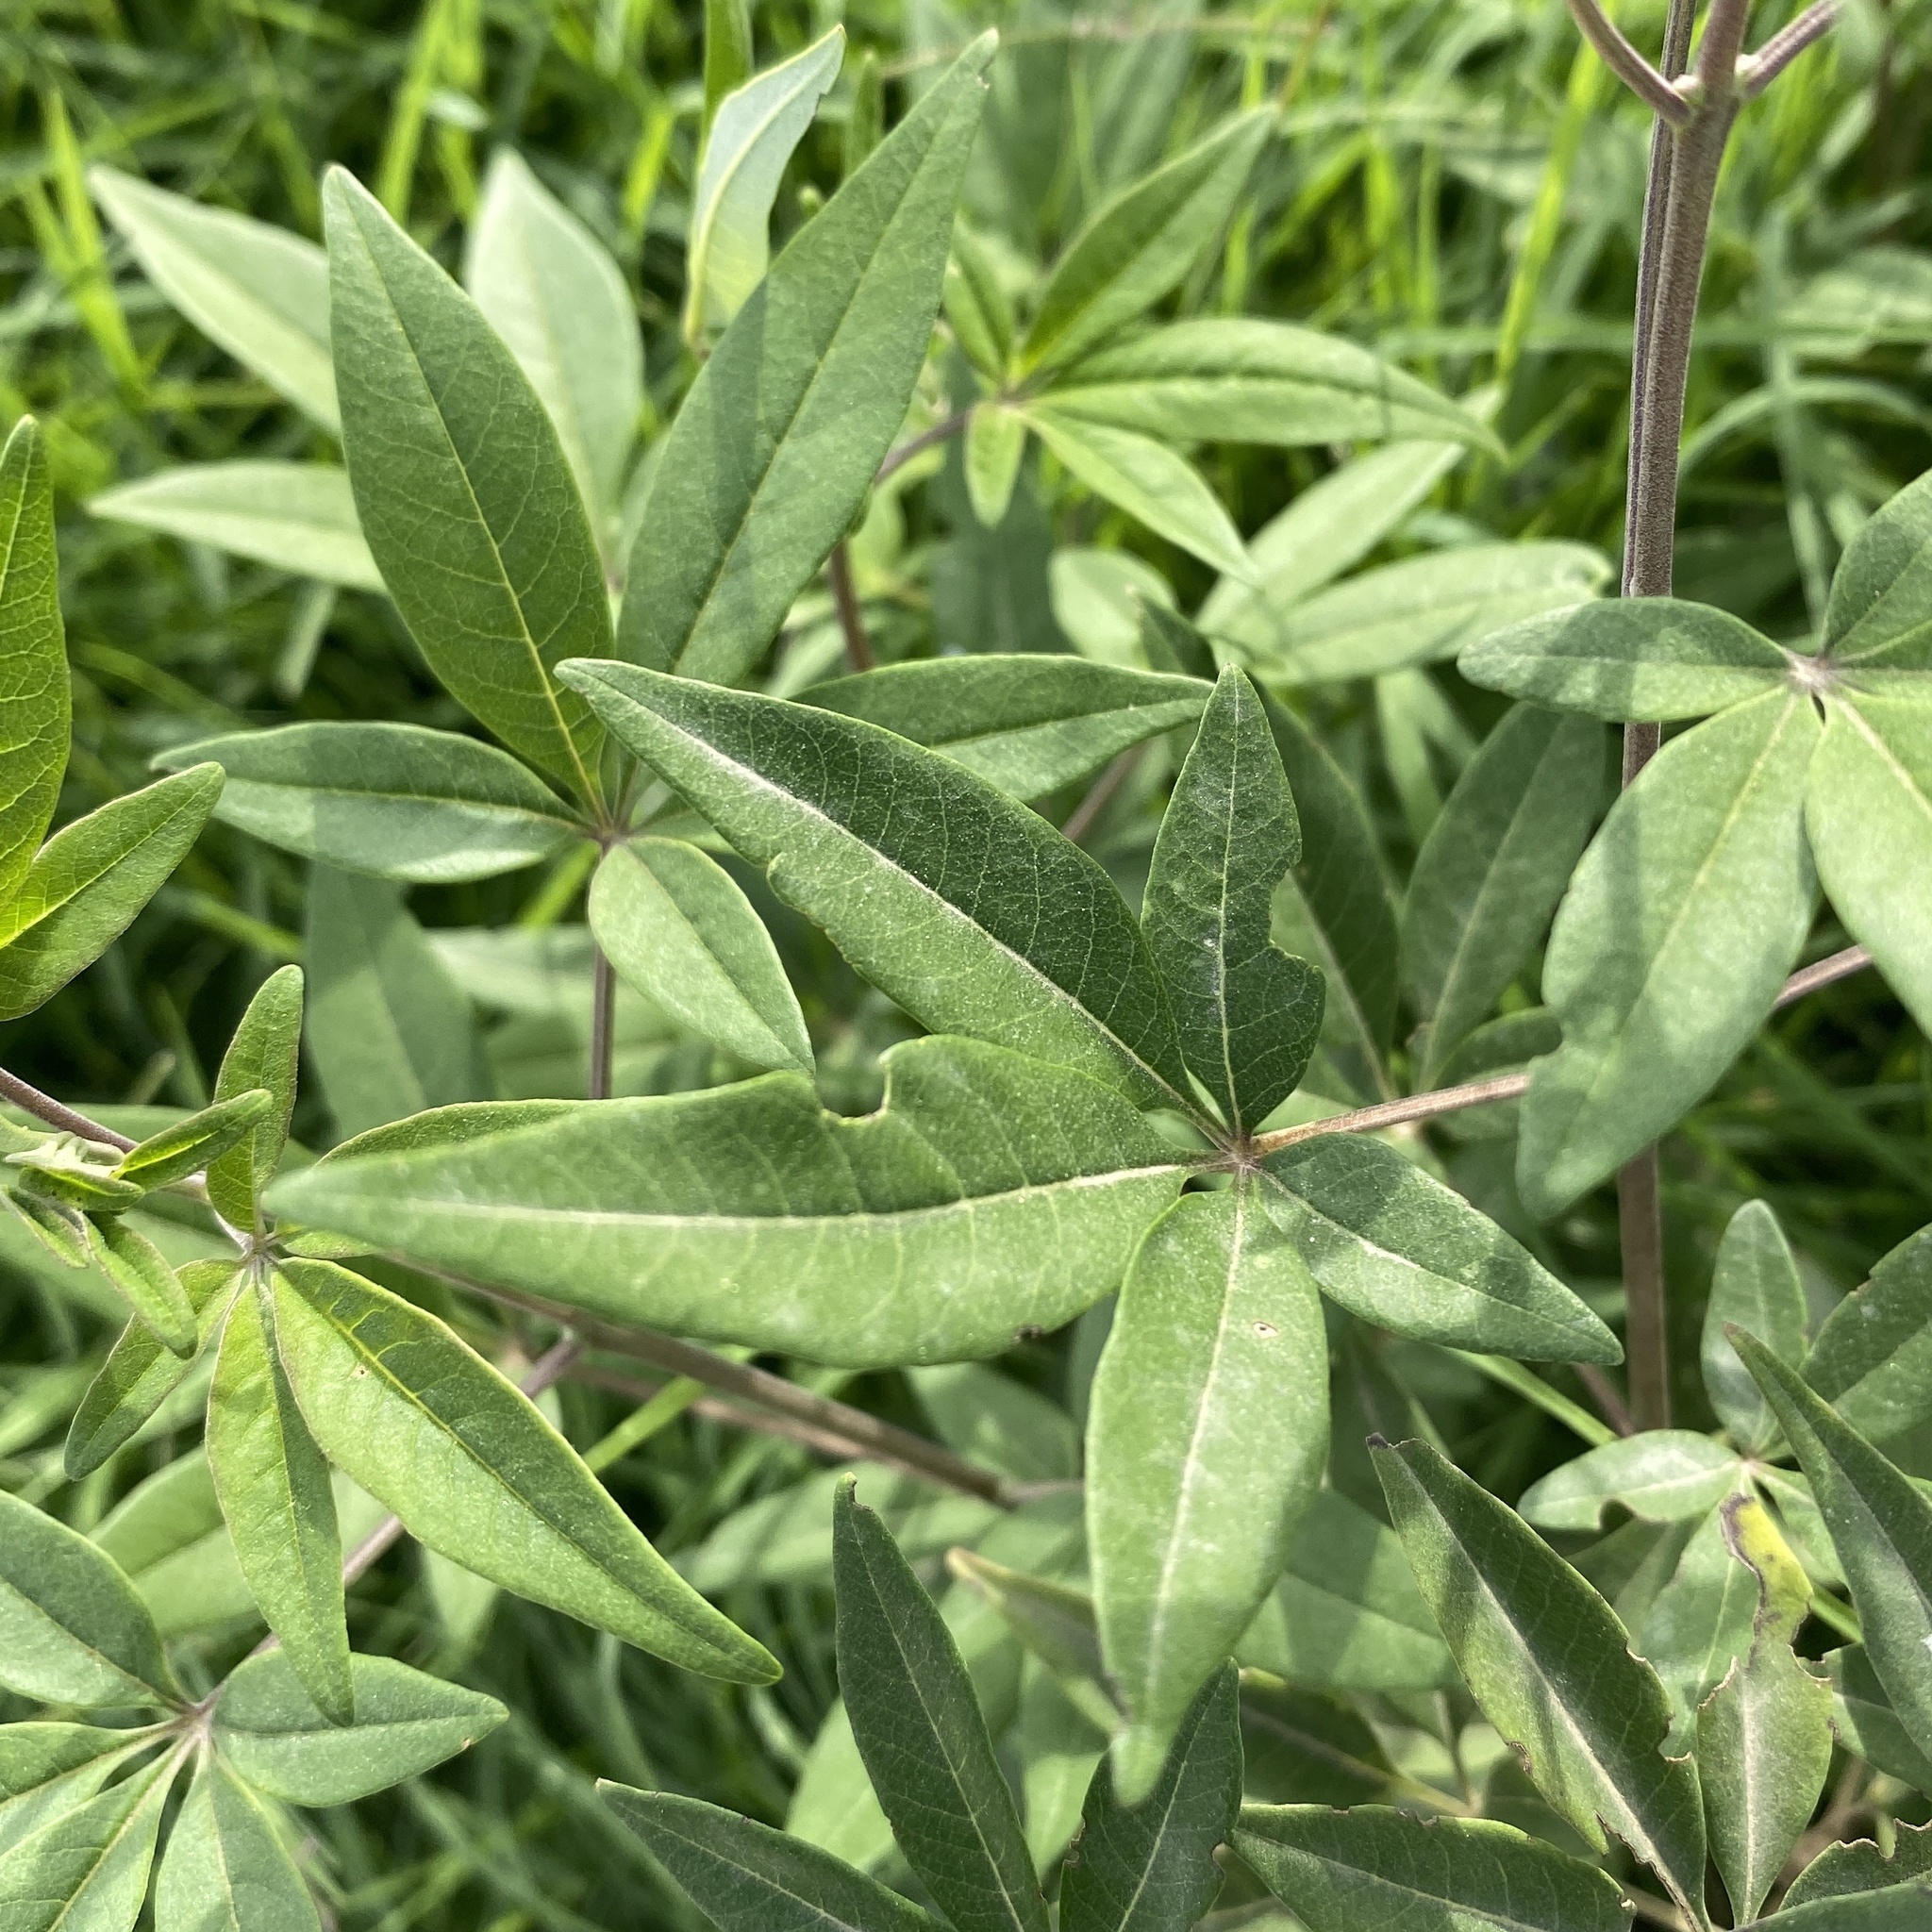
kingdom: Plantae
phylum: Tracheophyta
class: Magnoliopsida
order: Lamiales
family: Lamiaceae
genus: Vitex
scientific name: Vitex agnus-castus
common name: Chasteberry
